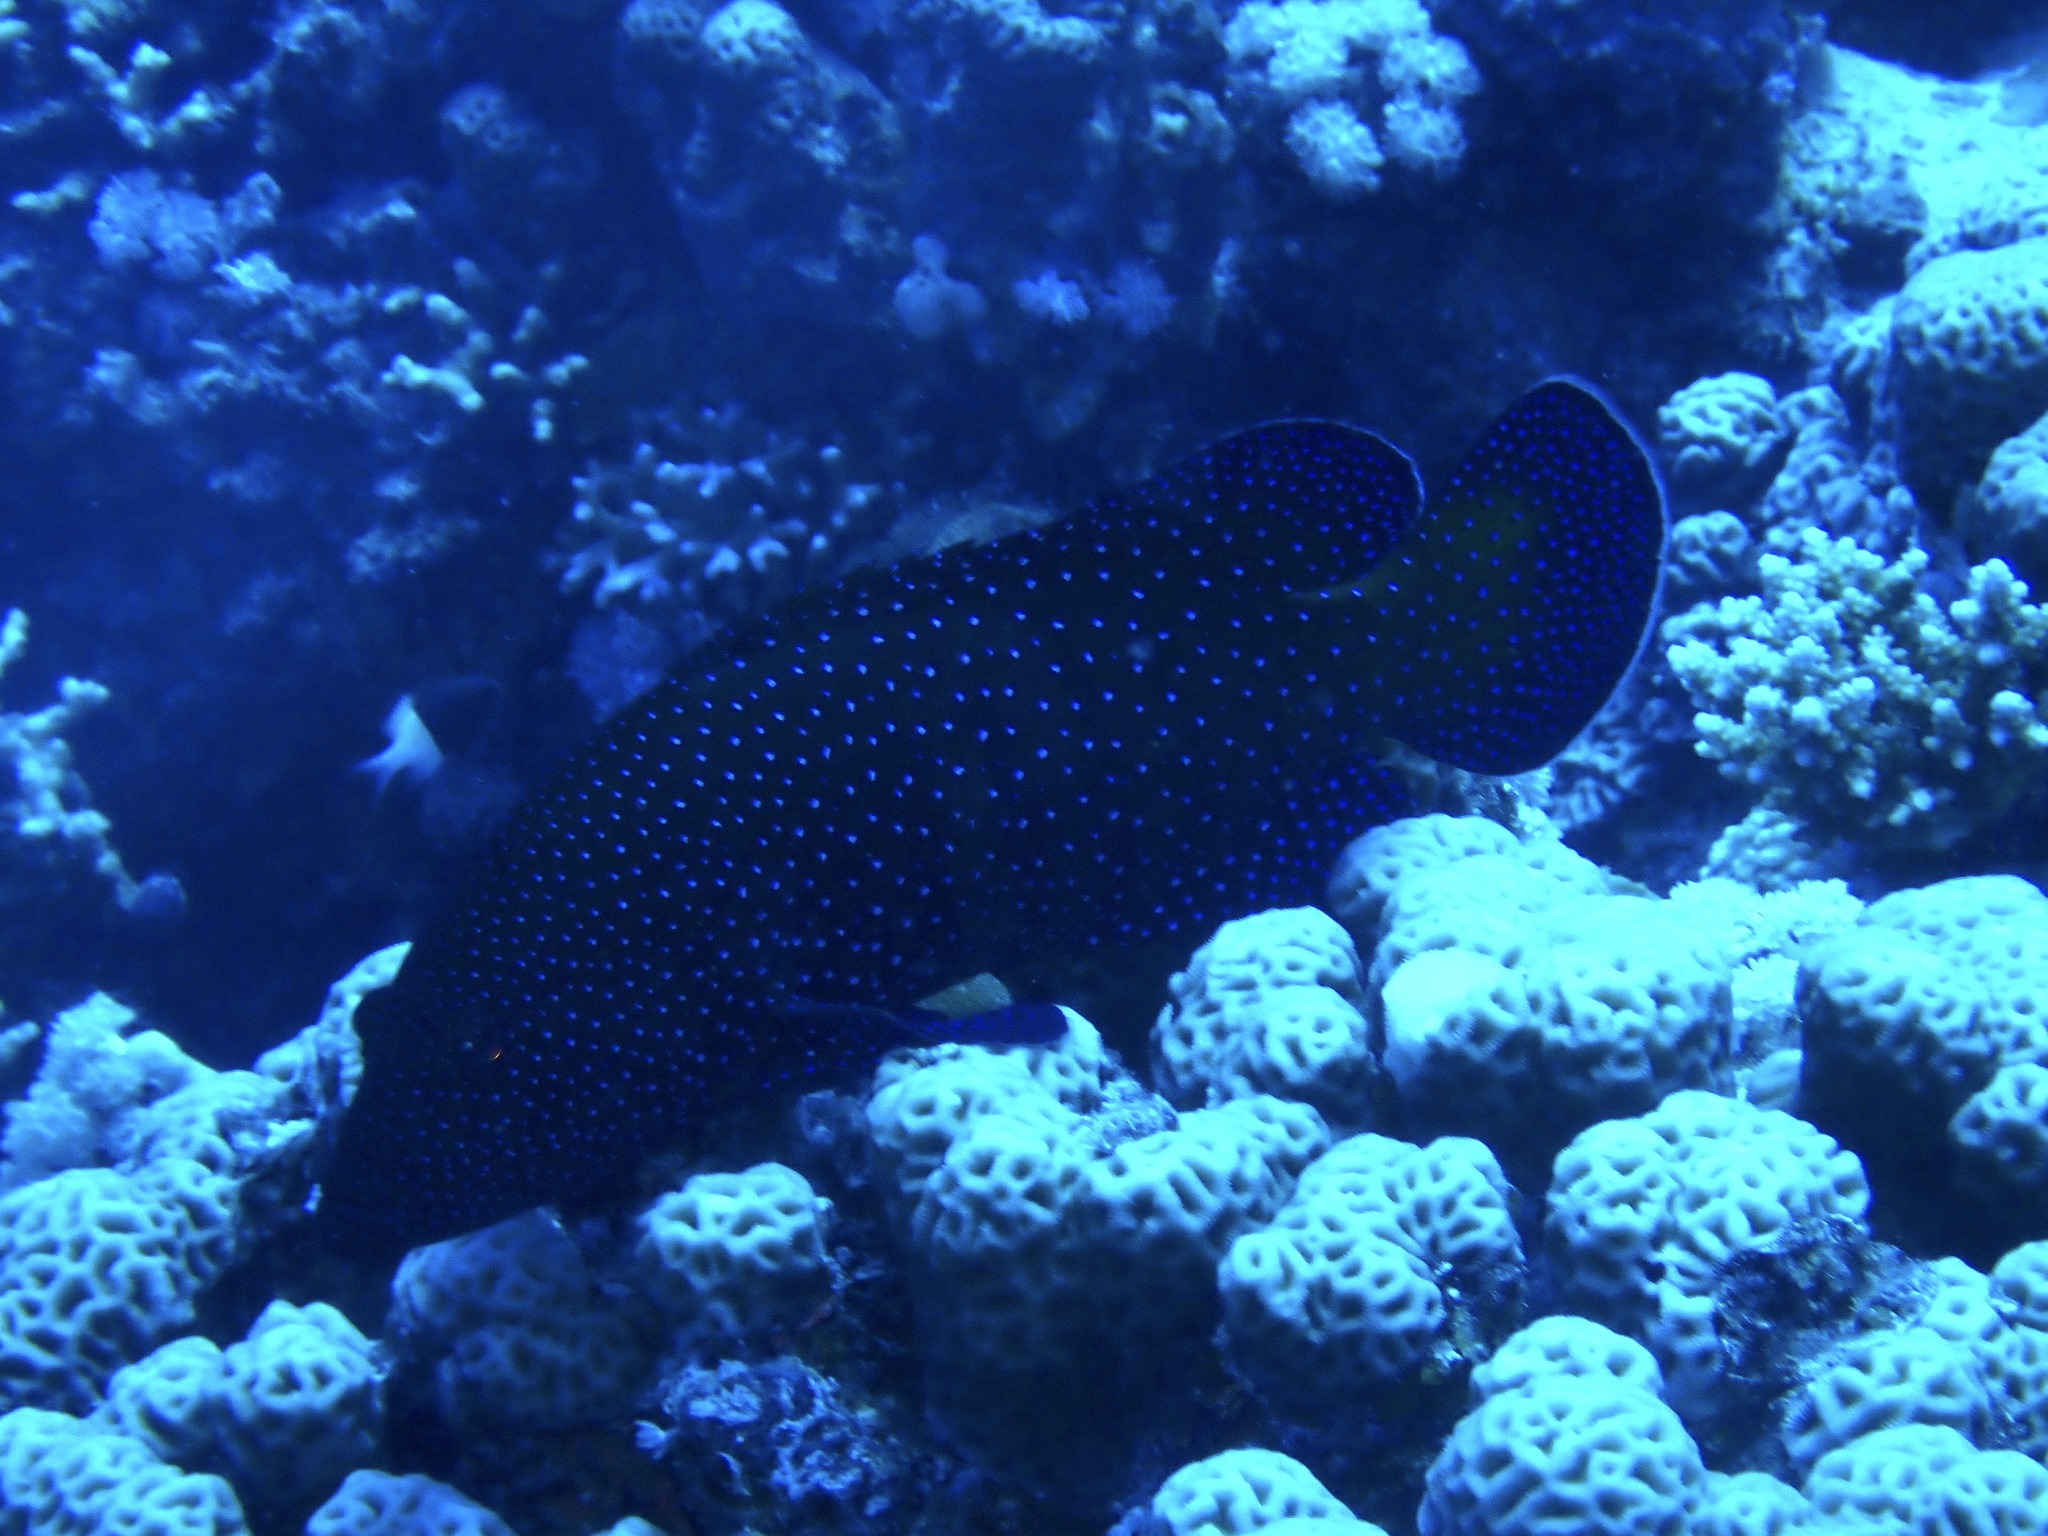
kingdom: Animalia
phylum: Chordata
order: Perciformes
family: Serranidae
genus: Cephalopholis
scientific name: Cephalopholis argus
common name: Peacock grouper
